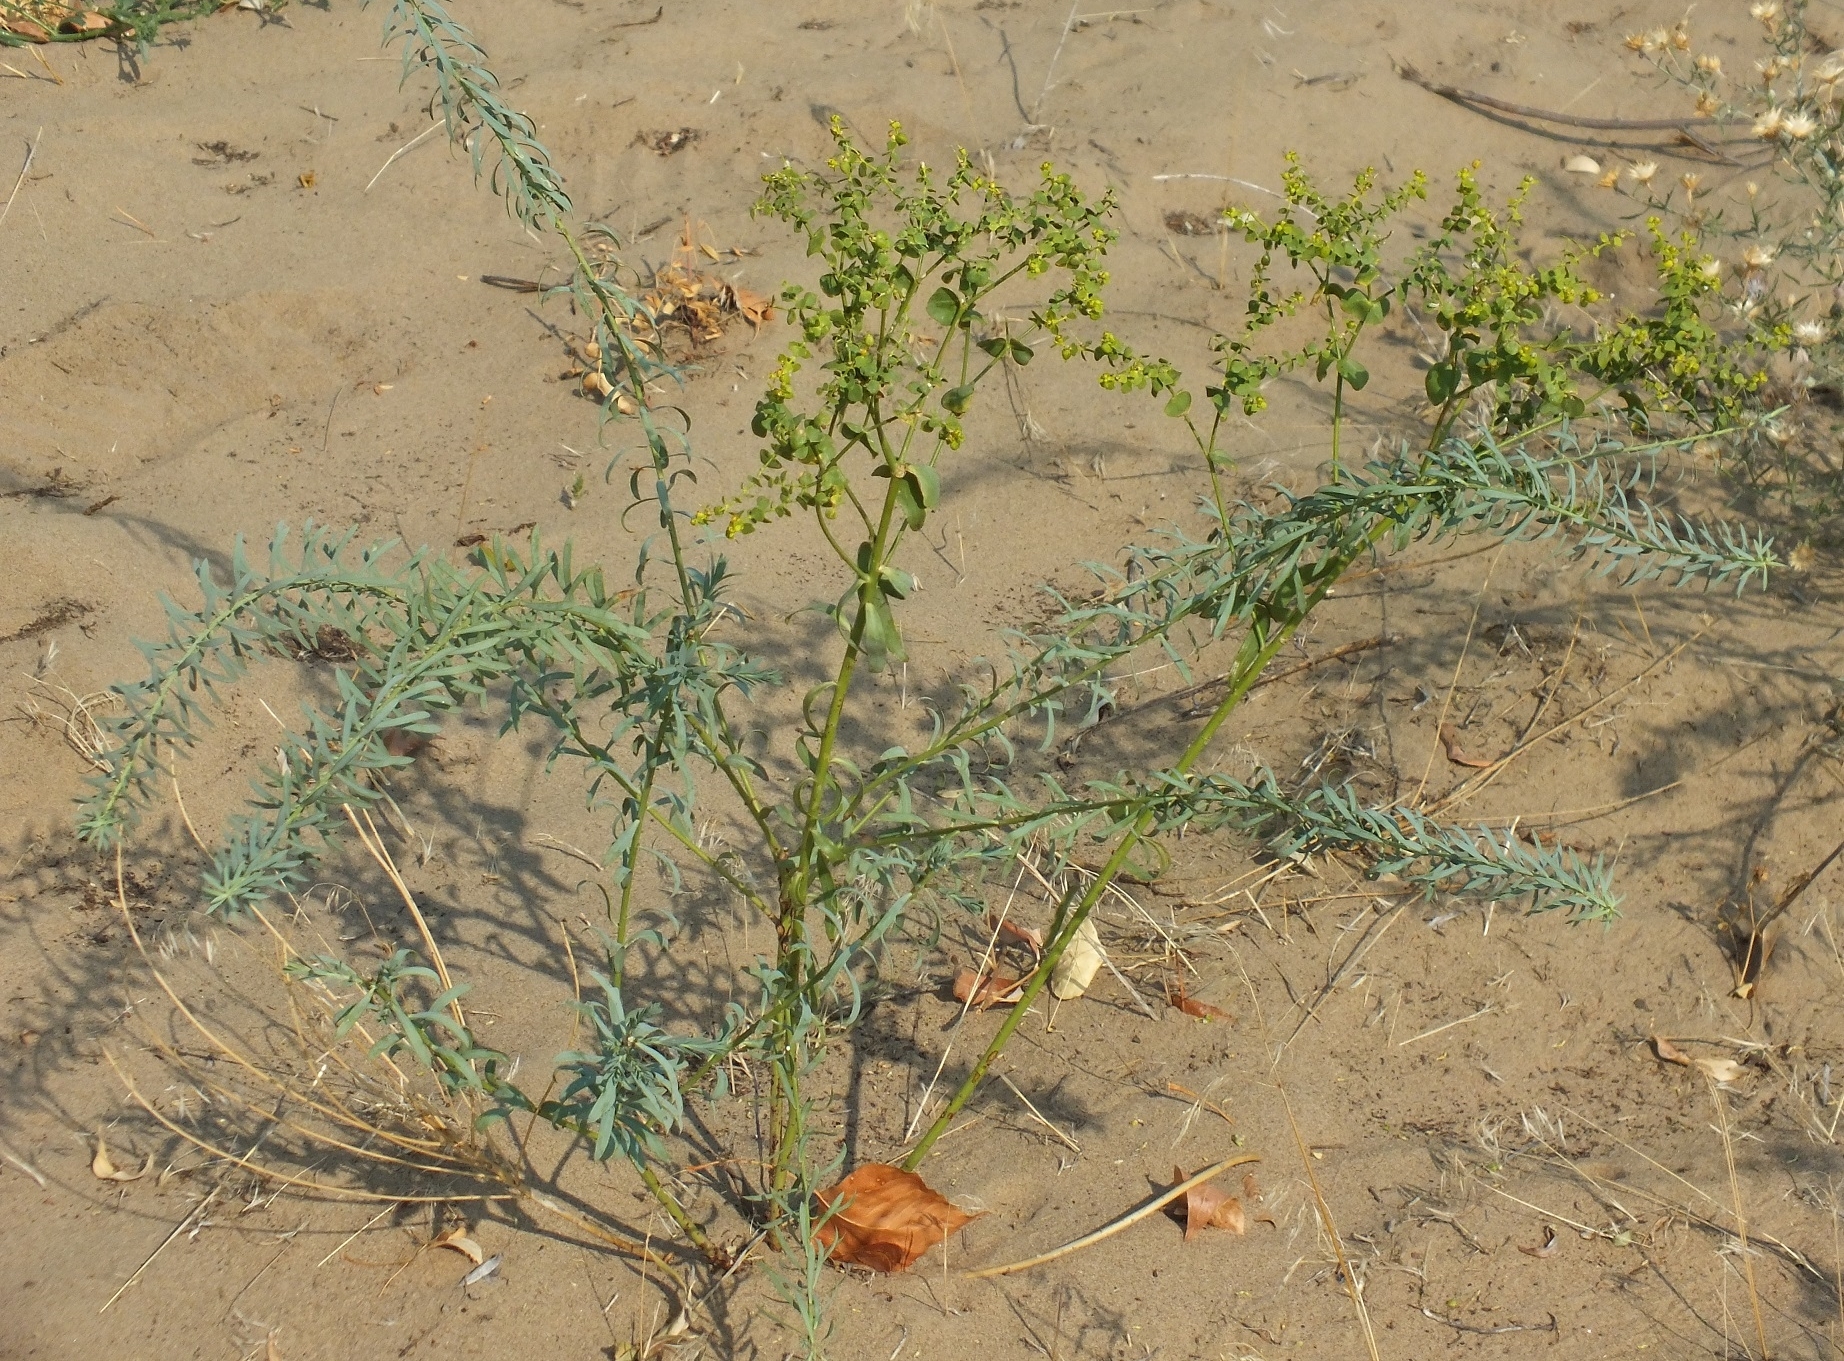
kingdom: Plantae
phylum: Tracheophyta
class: Magnoliopsida
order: Malpighiales
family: Euphorbiaceae
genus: Euphorbia
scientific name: Euphorbia seguieriana
